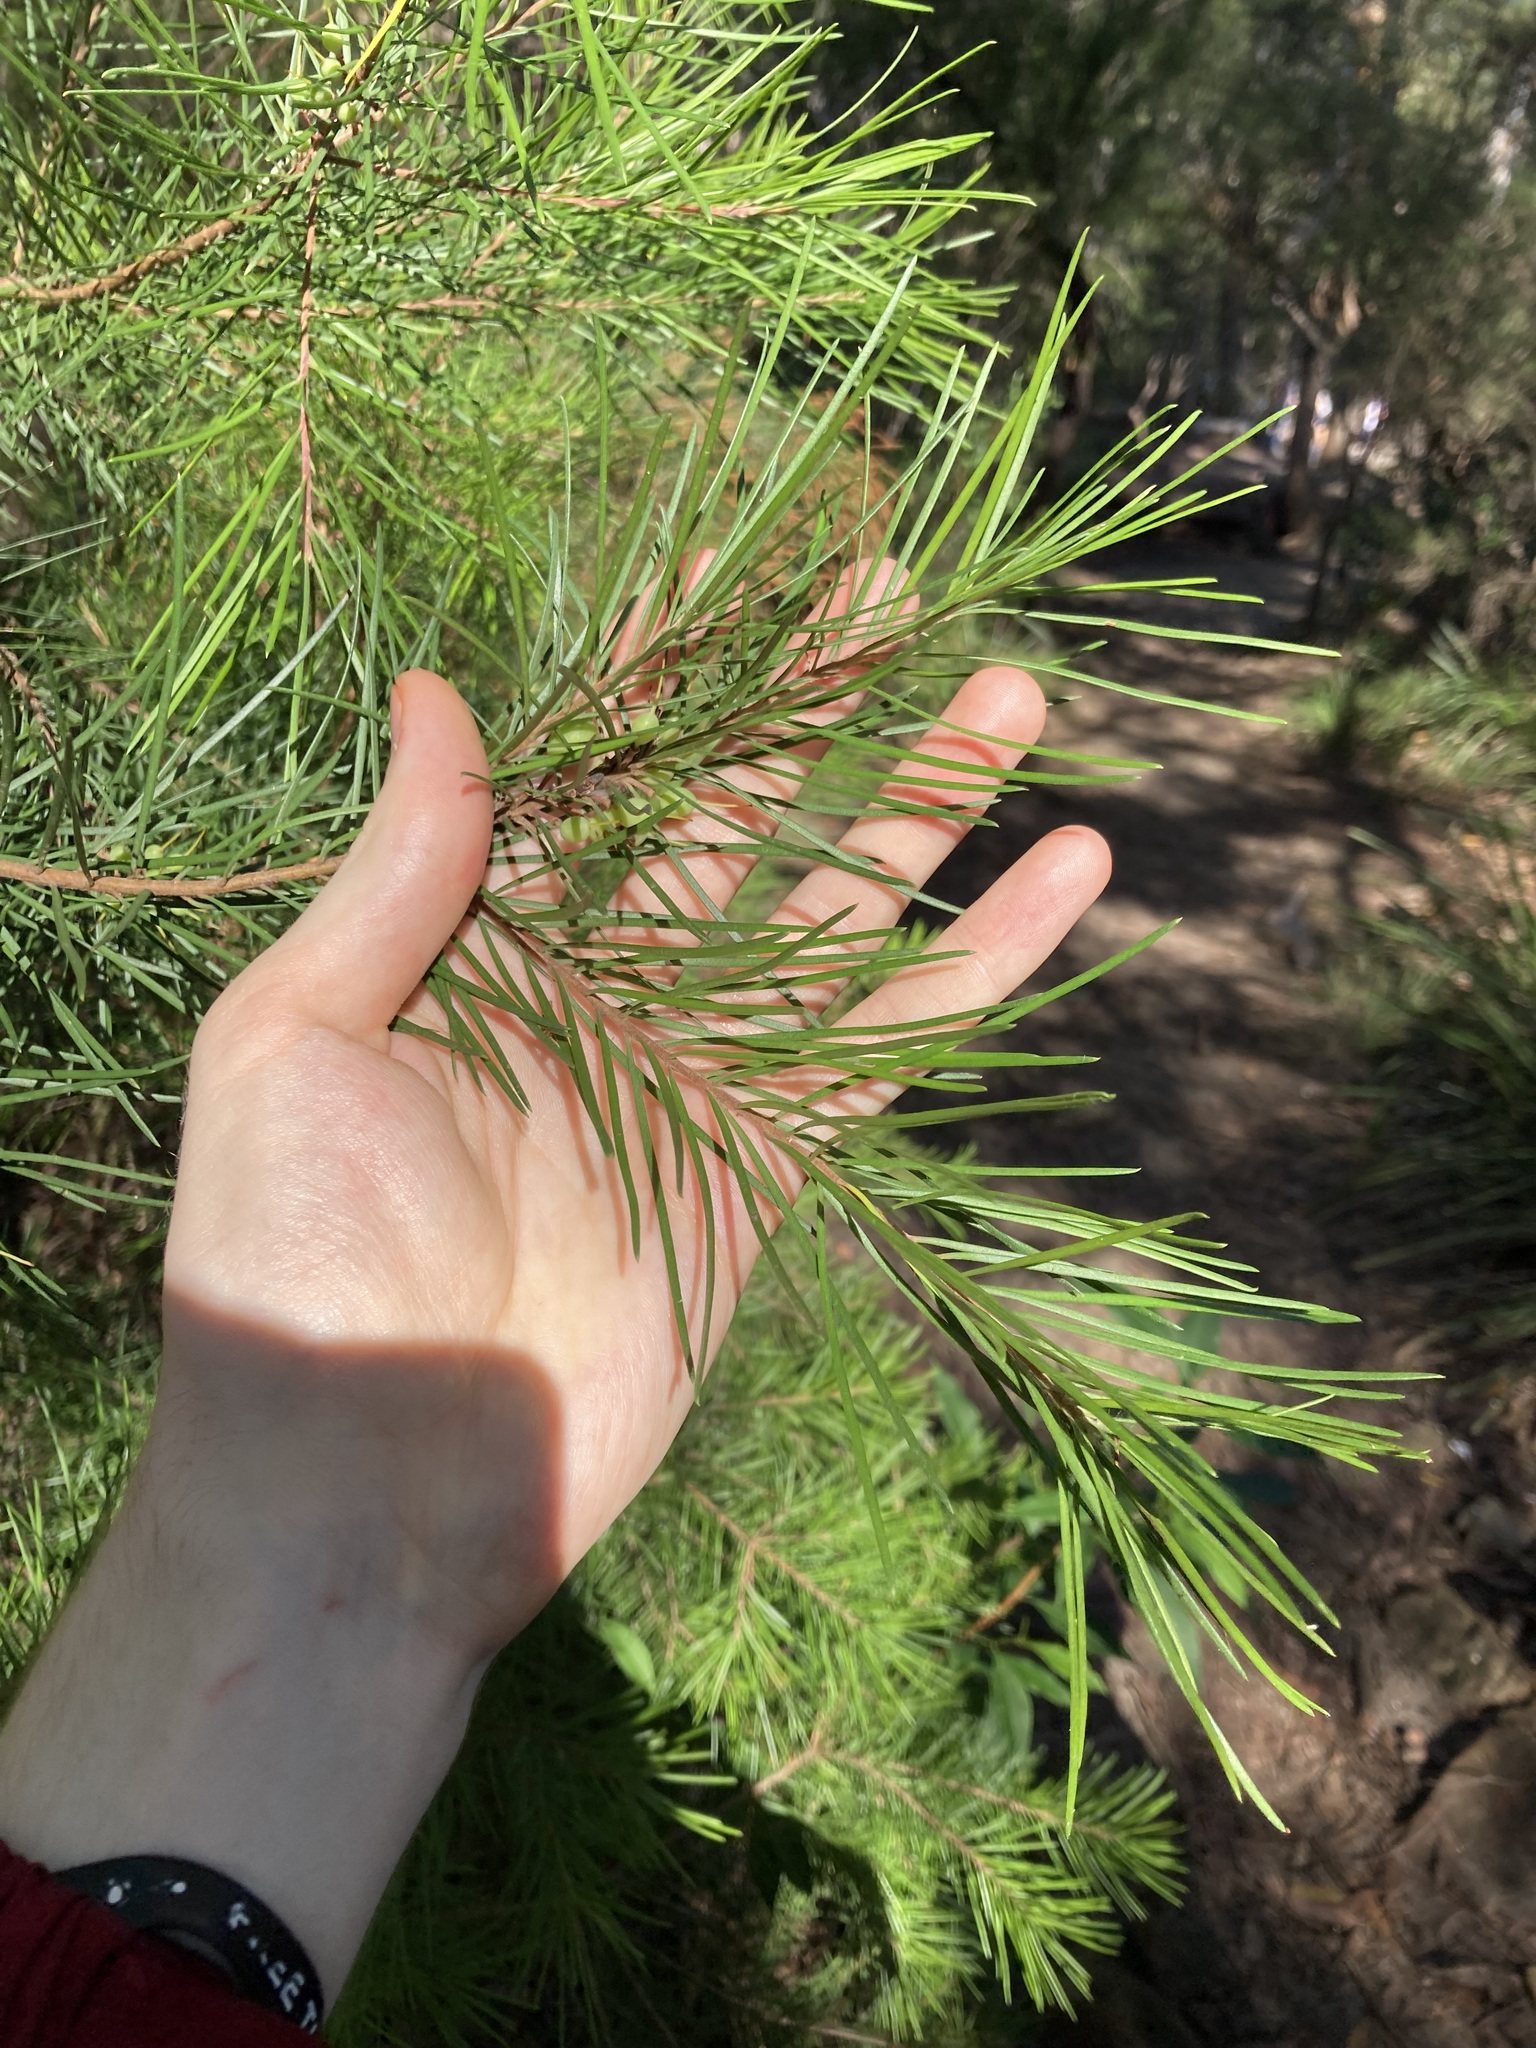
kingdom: Plantae
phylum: Tracheophyta
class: Magnoliopsida
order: Proteales
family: Proteaceae
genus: Persoonia
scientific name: Persoonia linearis
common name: Narrow-leaf geebung
